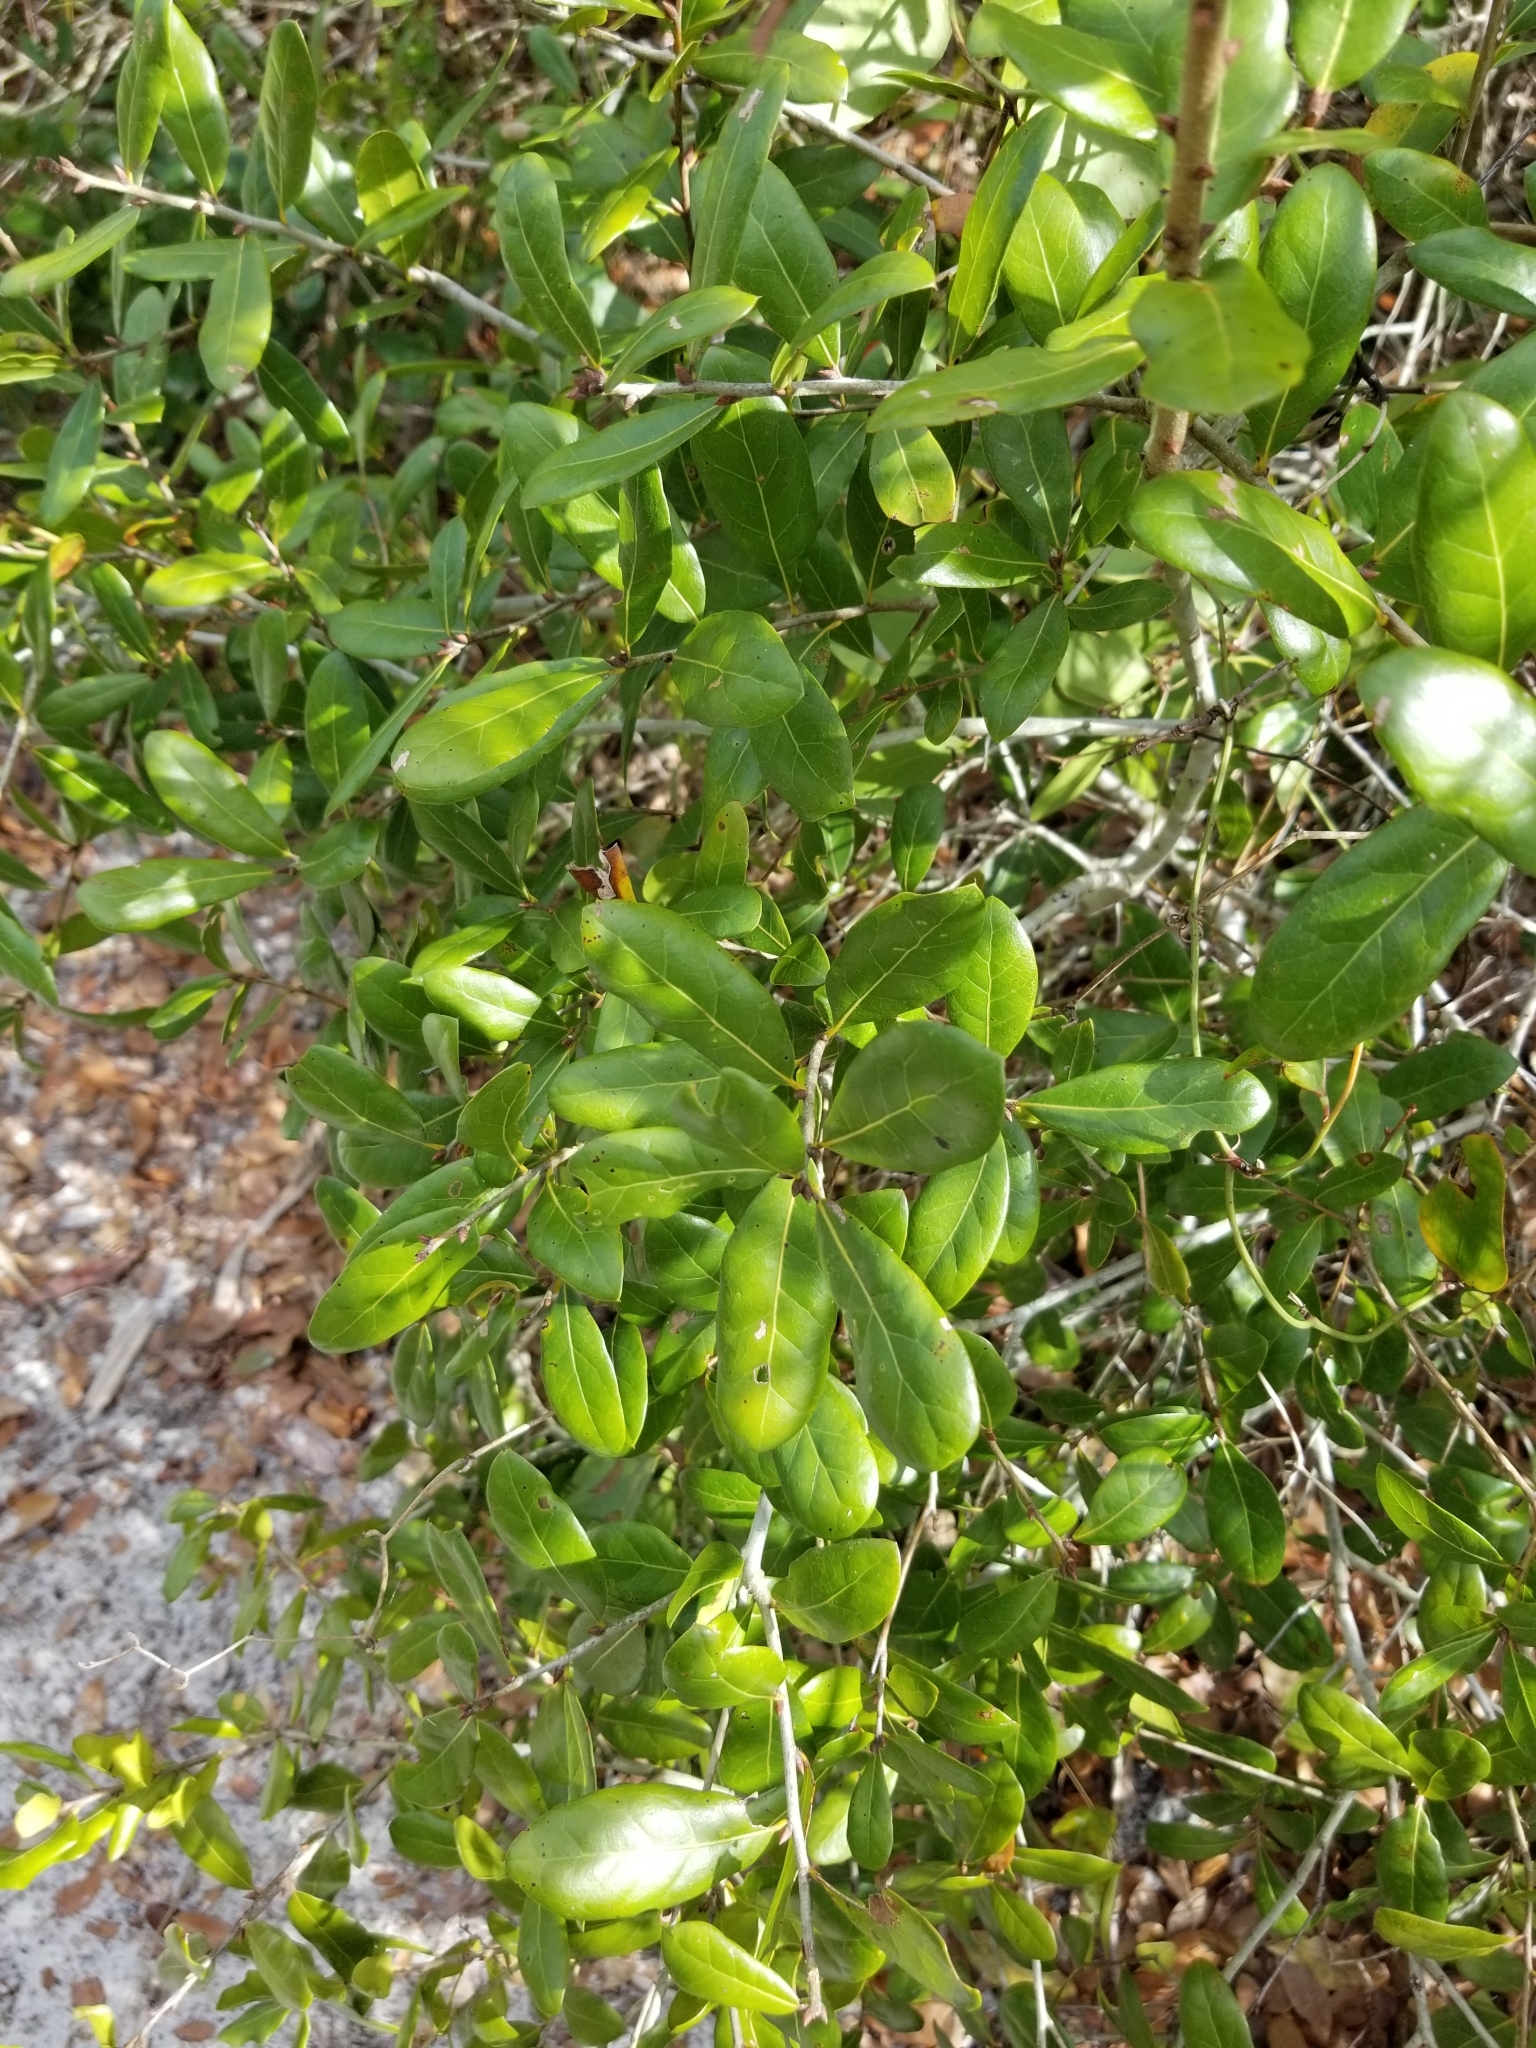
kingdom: Plantae
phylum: Tracheophyta
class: Magnoliopsida
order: Fagales
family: Fagaceae
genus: Quercus
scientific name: Quercus myrtifolia
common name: Myrtle oak
